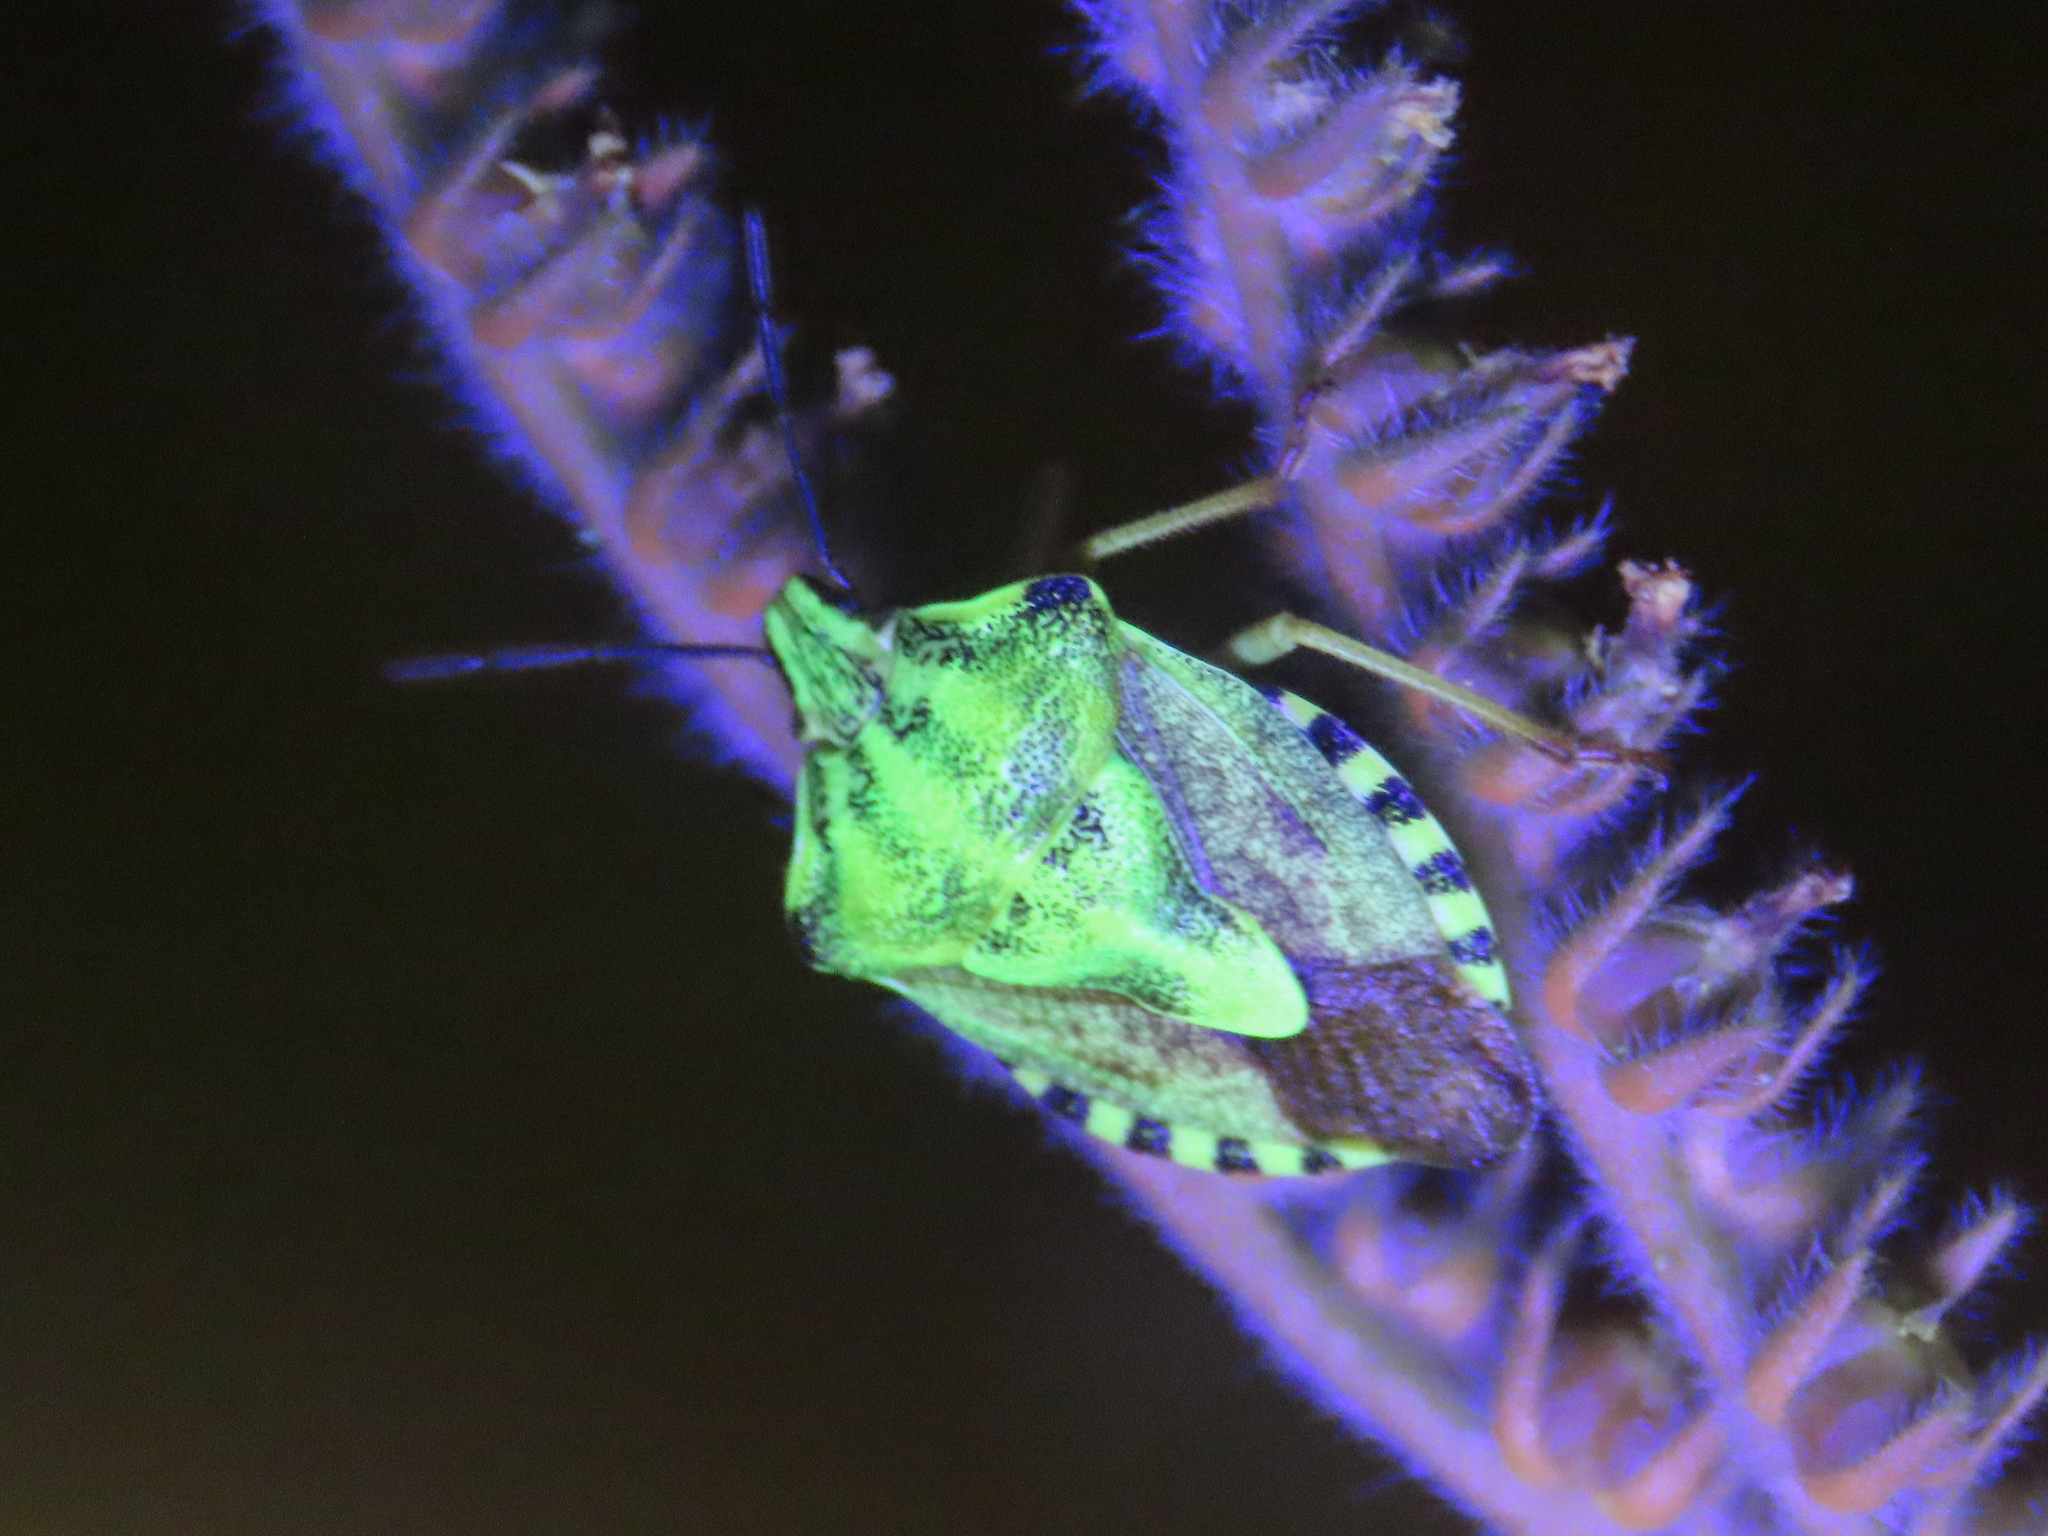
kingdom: Animalia
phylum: Arthropoda
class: Insecta
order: Hemiptera
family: Pentatomidae
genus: Carpocoris
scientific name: Carpocoris purpureipennis
